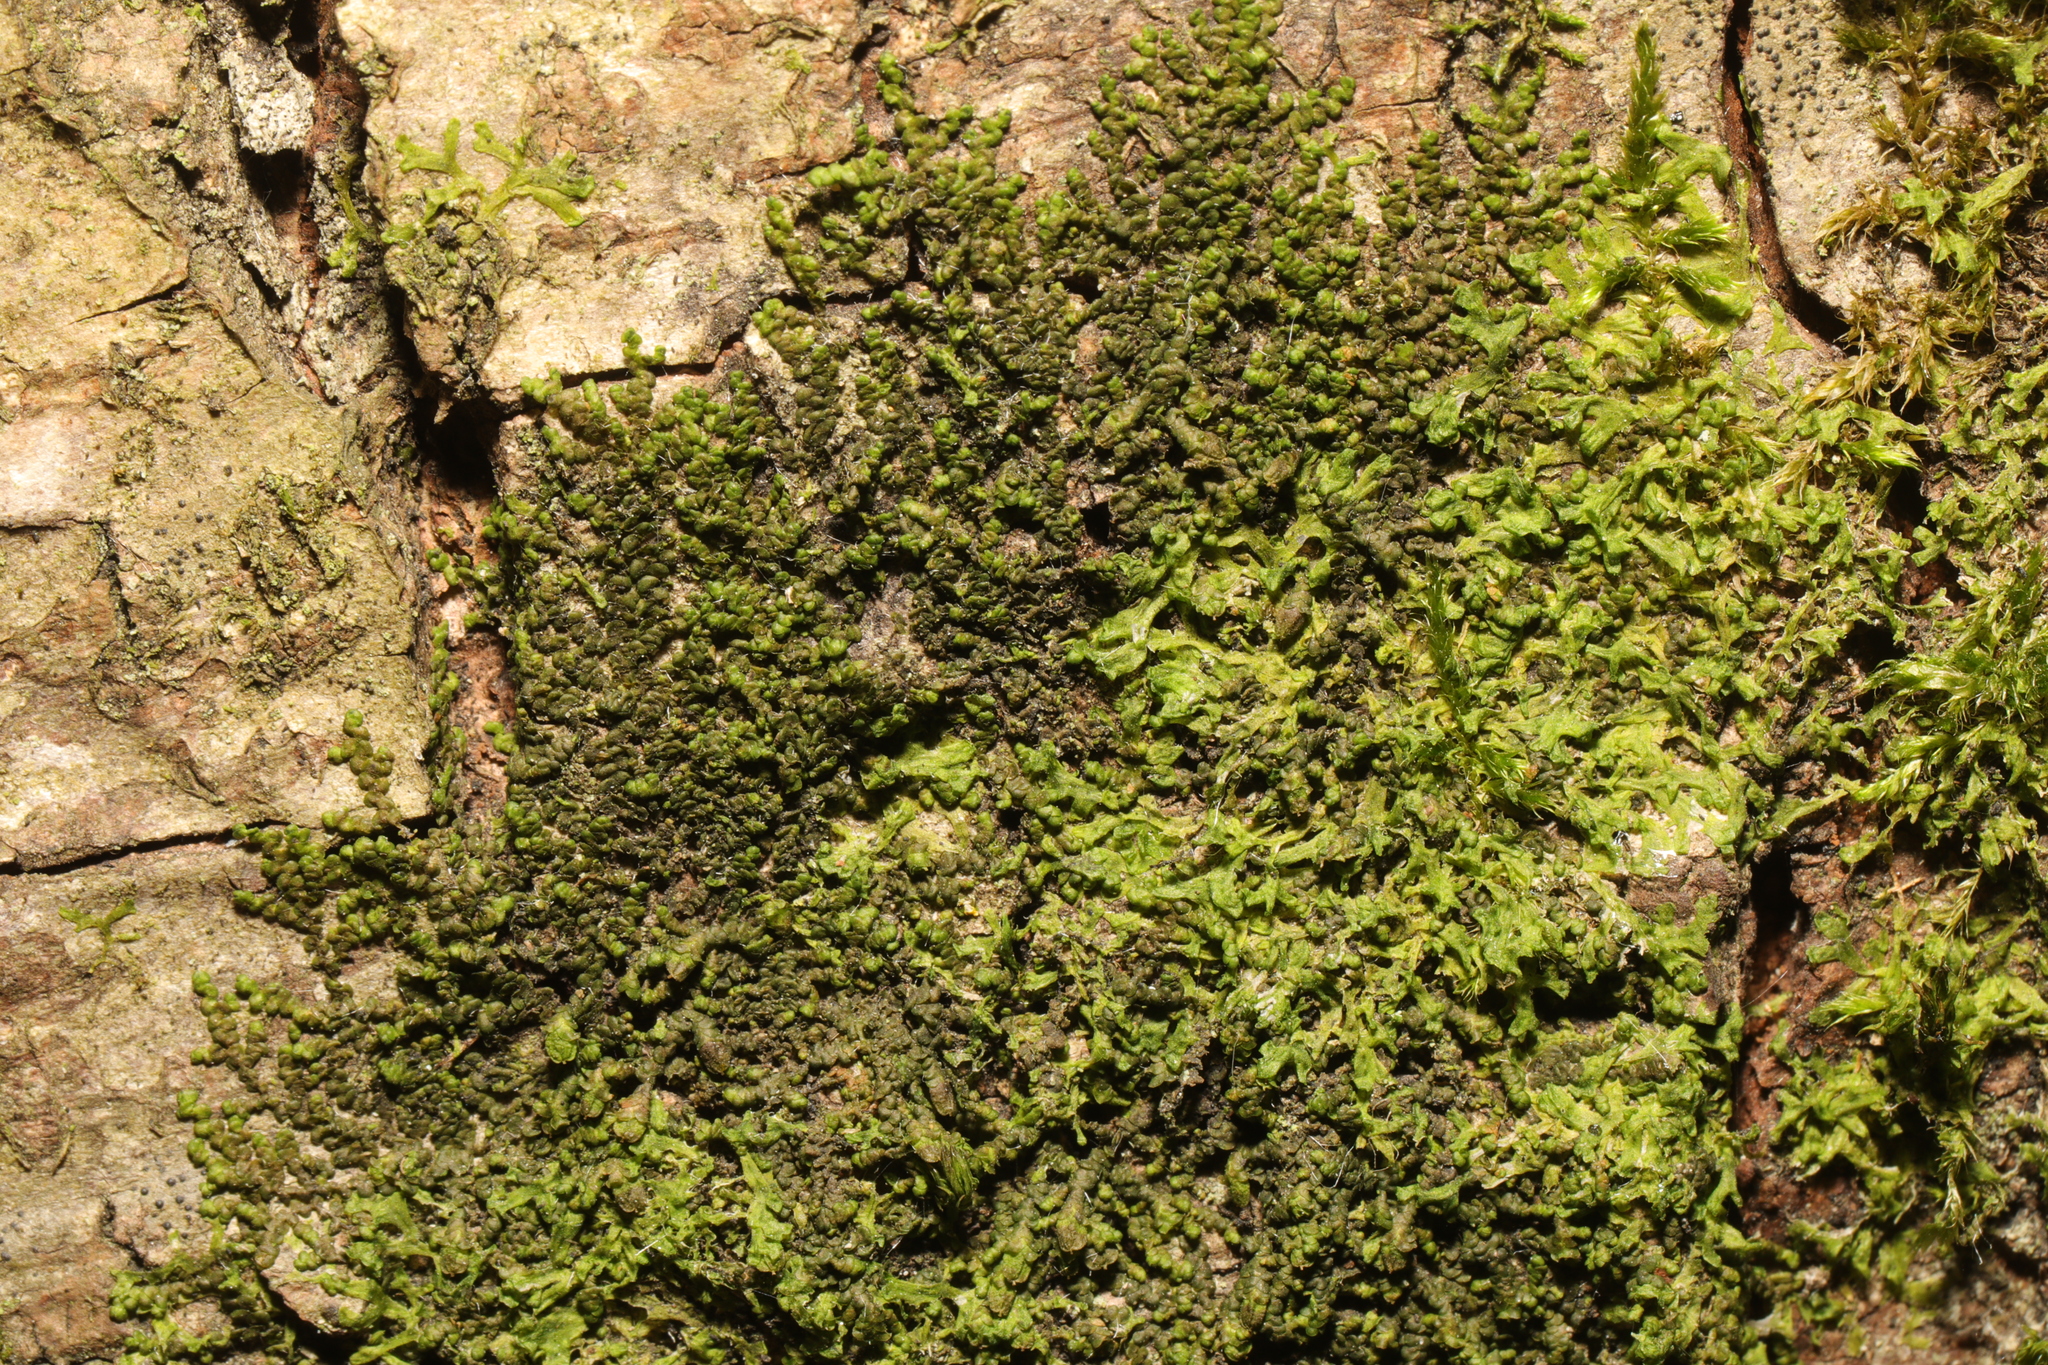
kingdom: Plantae
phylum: Marchantiophyta
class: Jungermanniopsida
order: Porellales
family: Frullaniaceae
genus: Frullania
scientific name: Frullania dilatata
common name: Dilated scalewort
